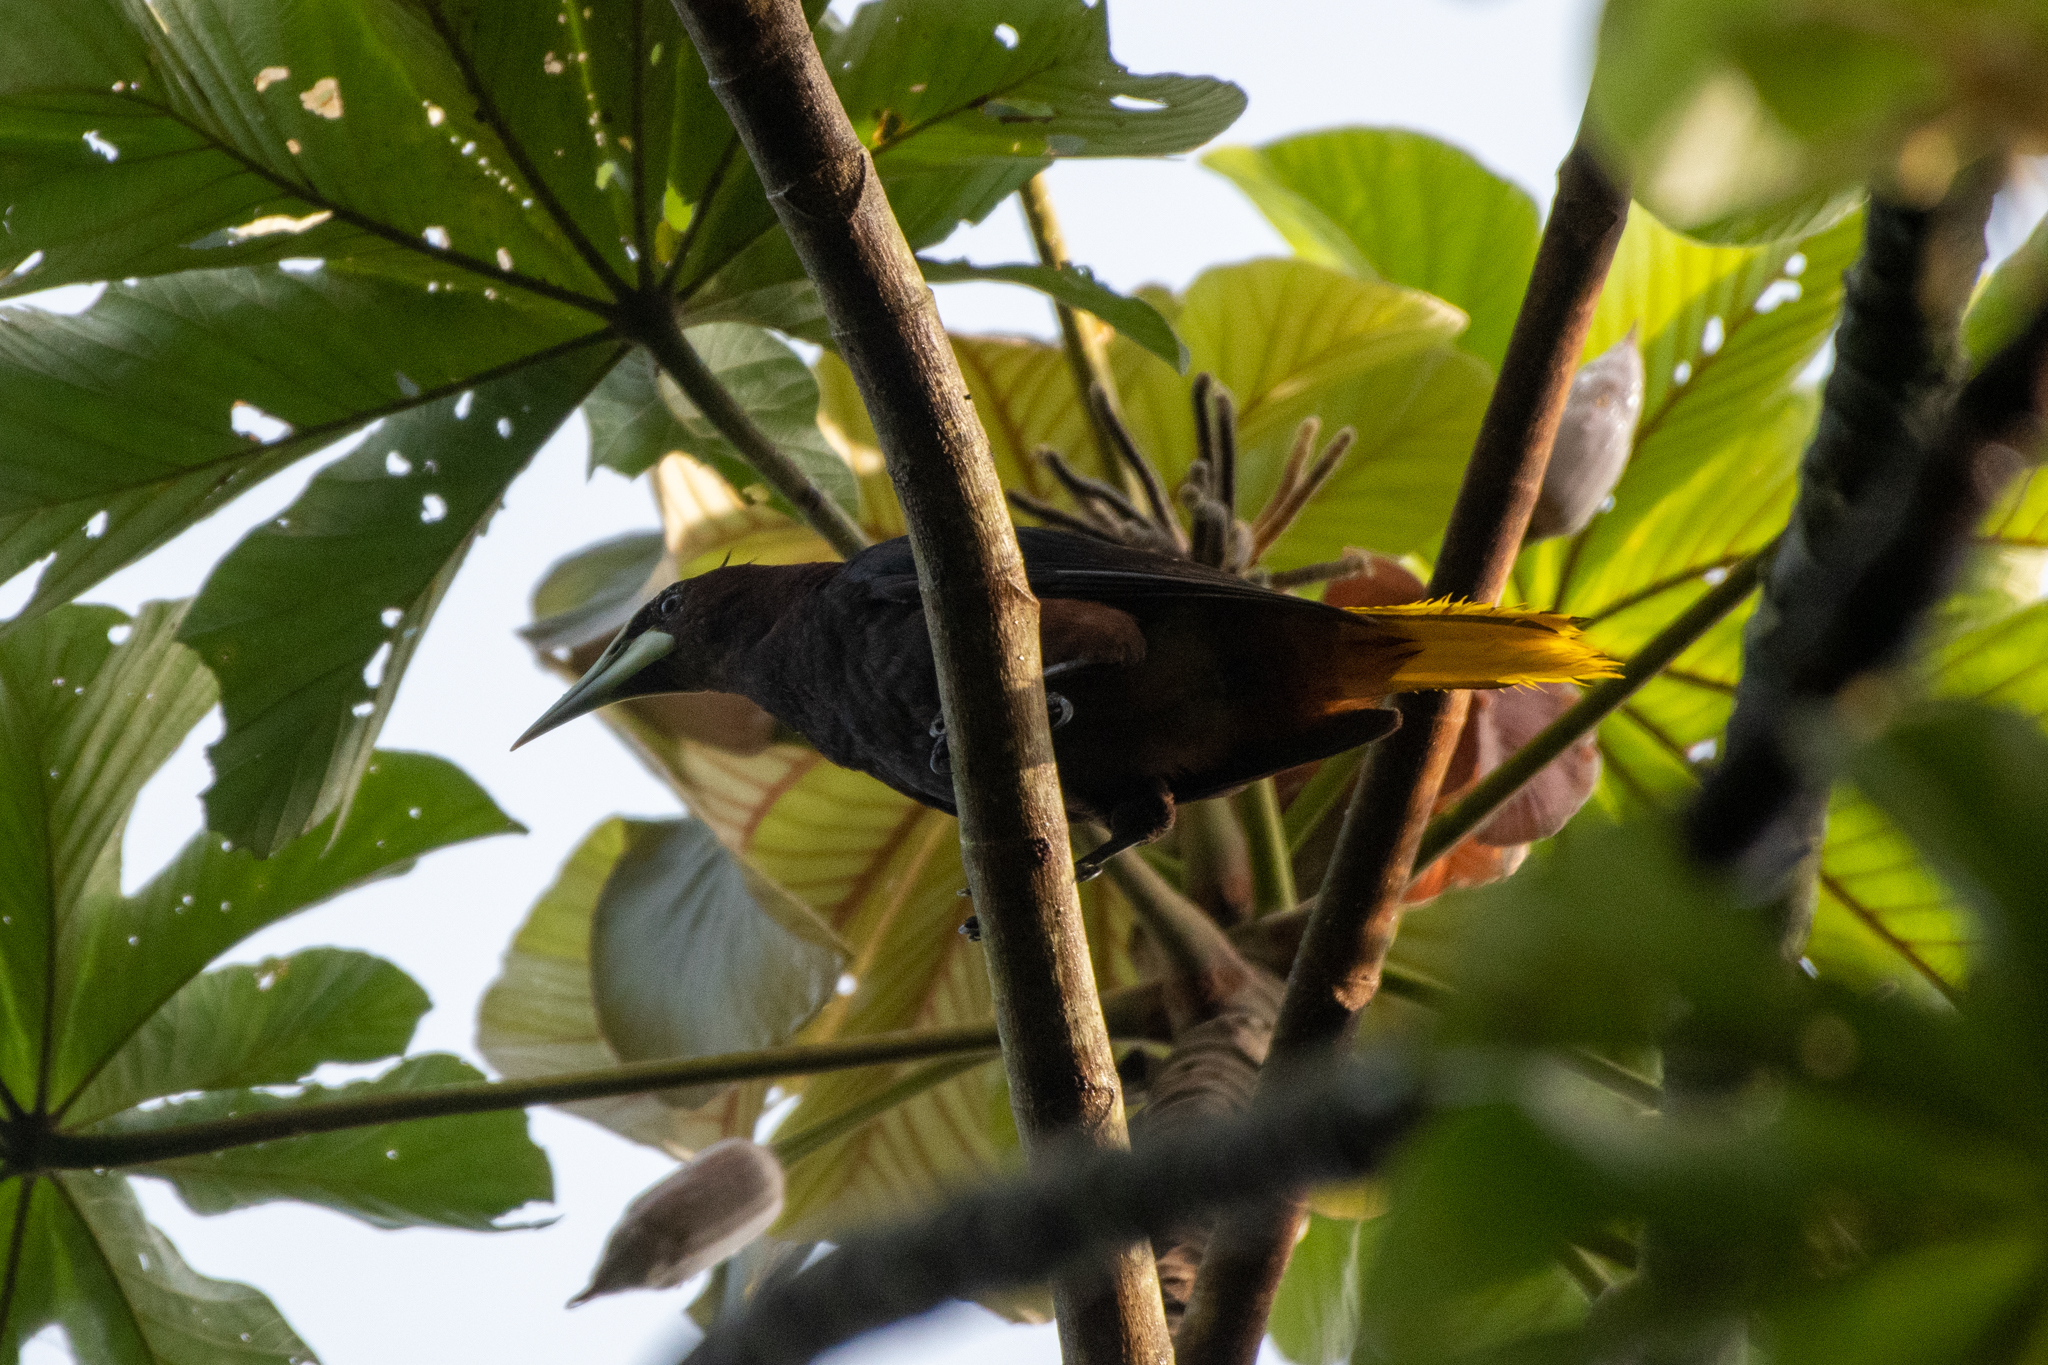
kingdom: Animalia
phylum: Chordata
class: Aves
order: Passeriformes
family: Icteridae
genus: Psarocolius
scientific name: Psarocolius wagleri
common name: Chestnut-headed oropendola
